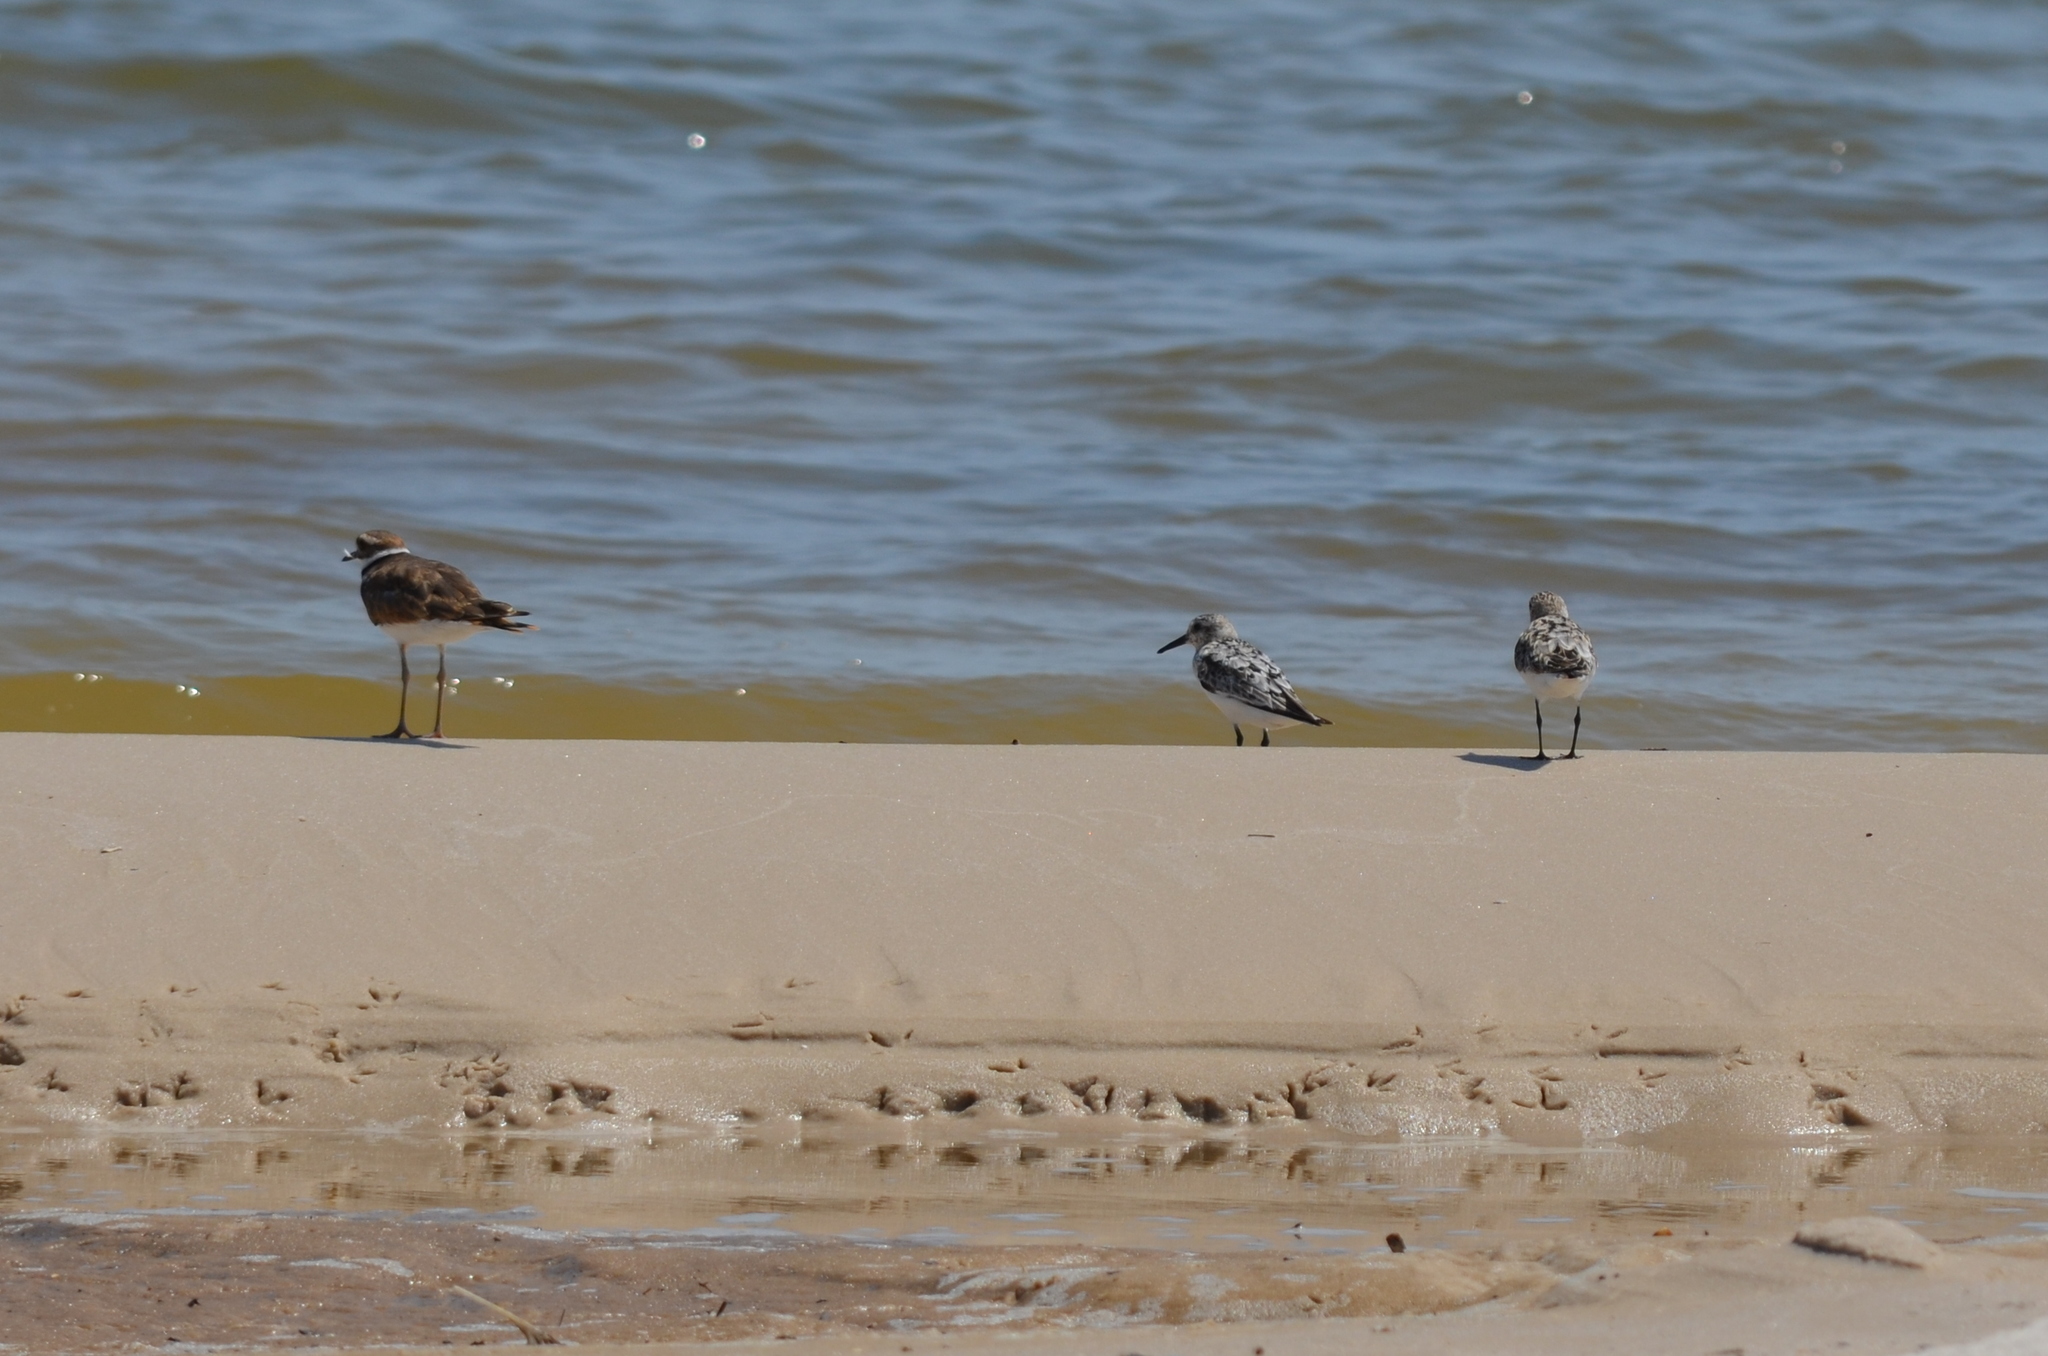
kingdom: Animalia
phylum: Chordata
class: Aves
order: Charadriiformes
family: Scolopacidae
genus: Calidris
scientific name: Calidris alba
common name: Sanderling
